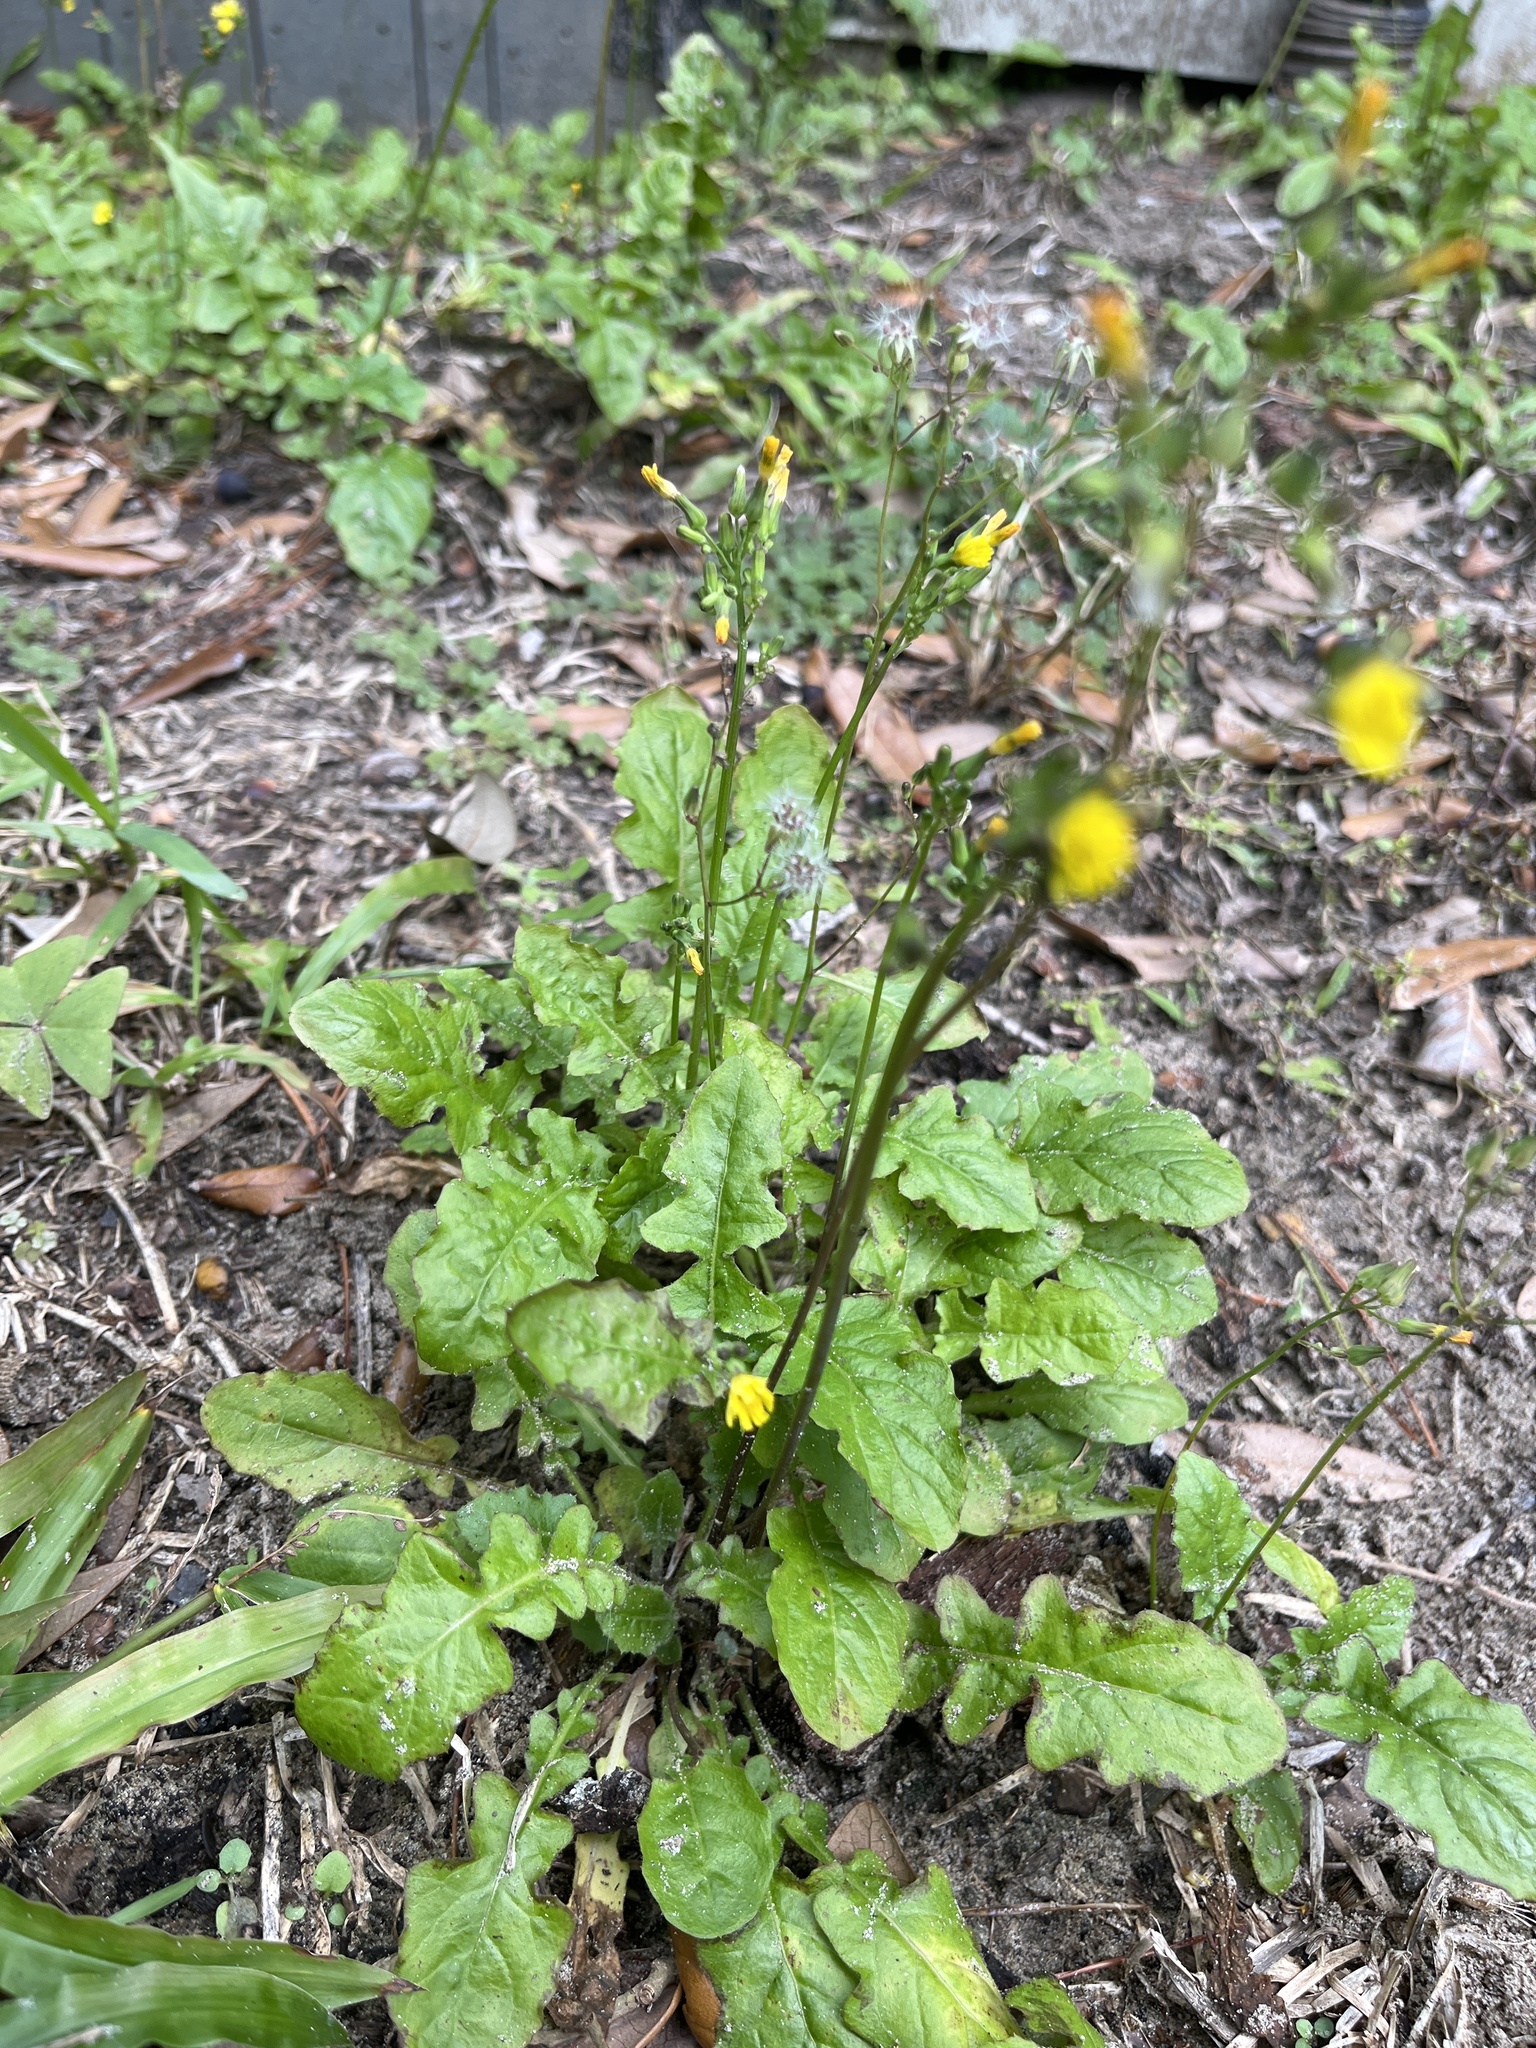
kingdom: Plantae
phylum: Tracheophyta
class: Magnoliopsida
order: Asterales
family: Asteraceae
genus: Youngia
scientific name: Youngia japonica
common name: Oriental false hawksbeard
